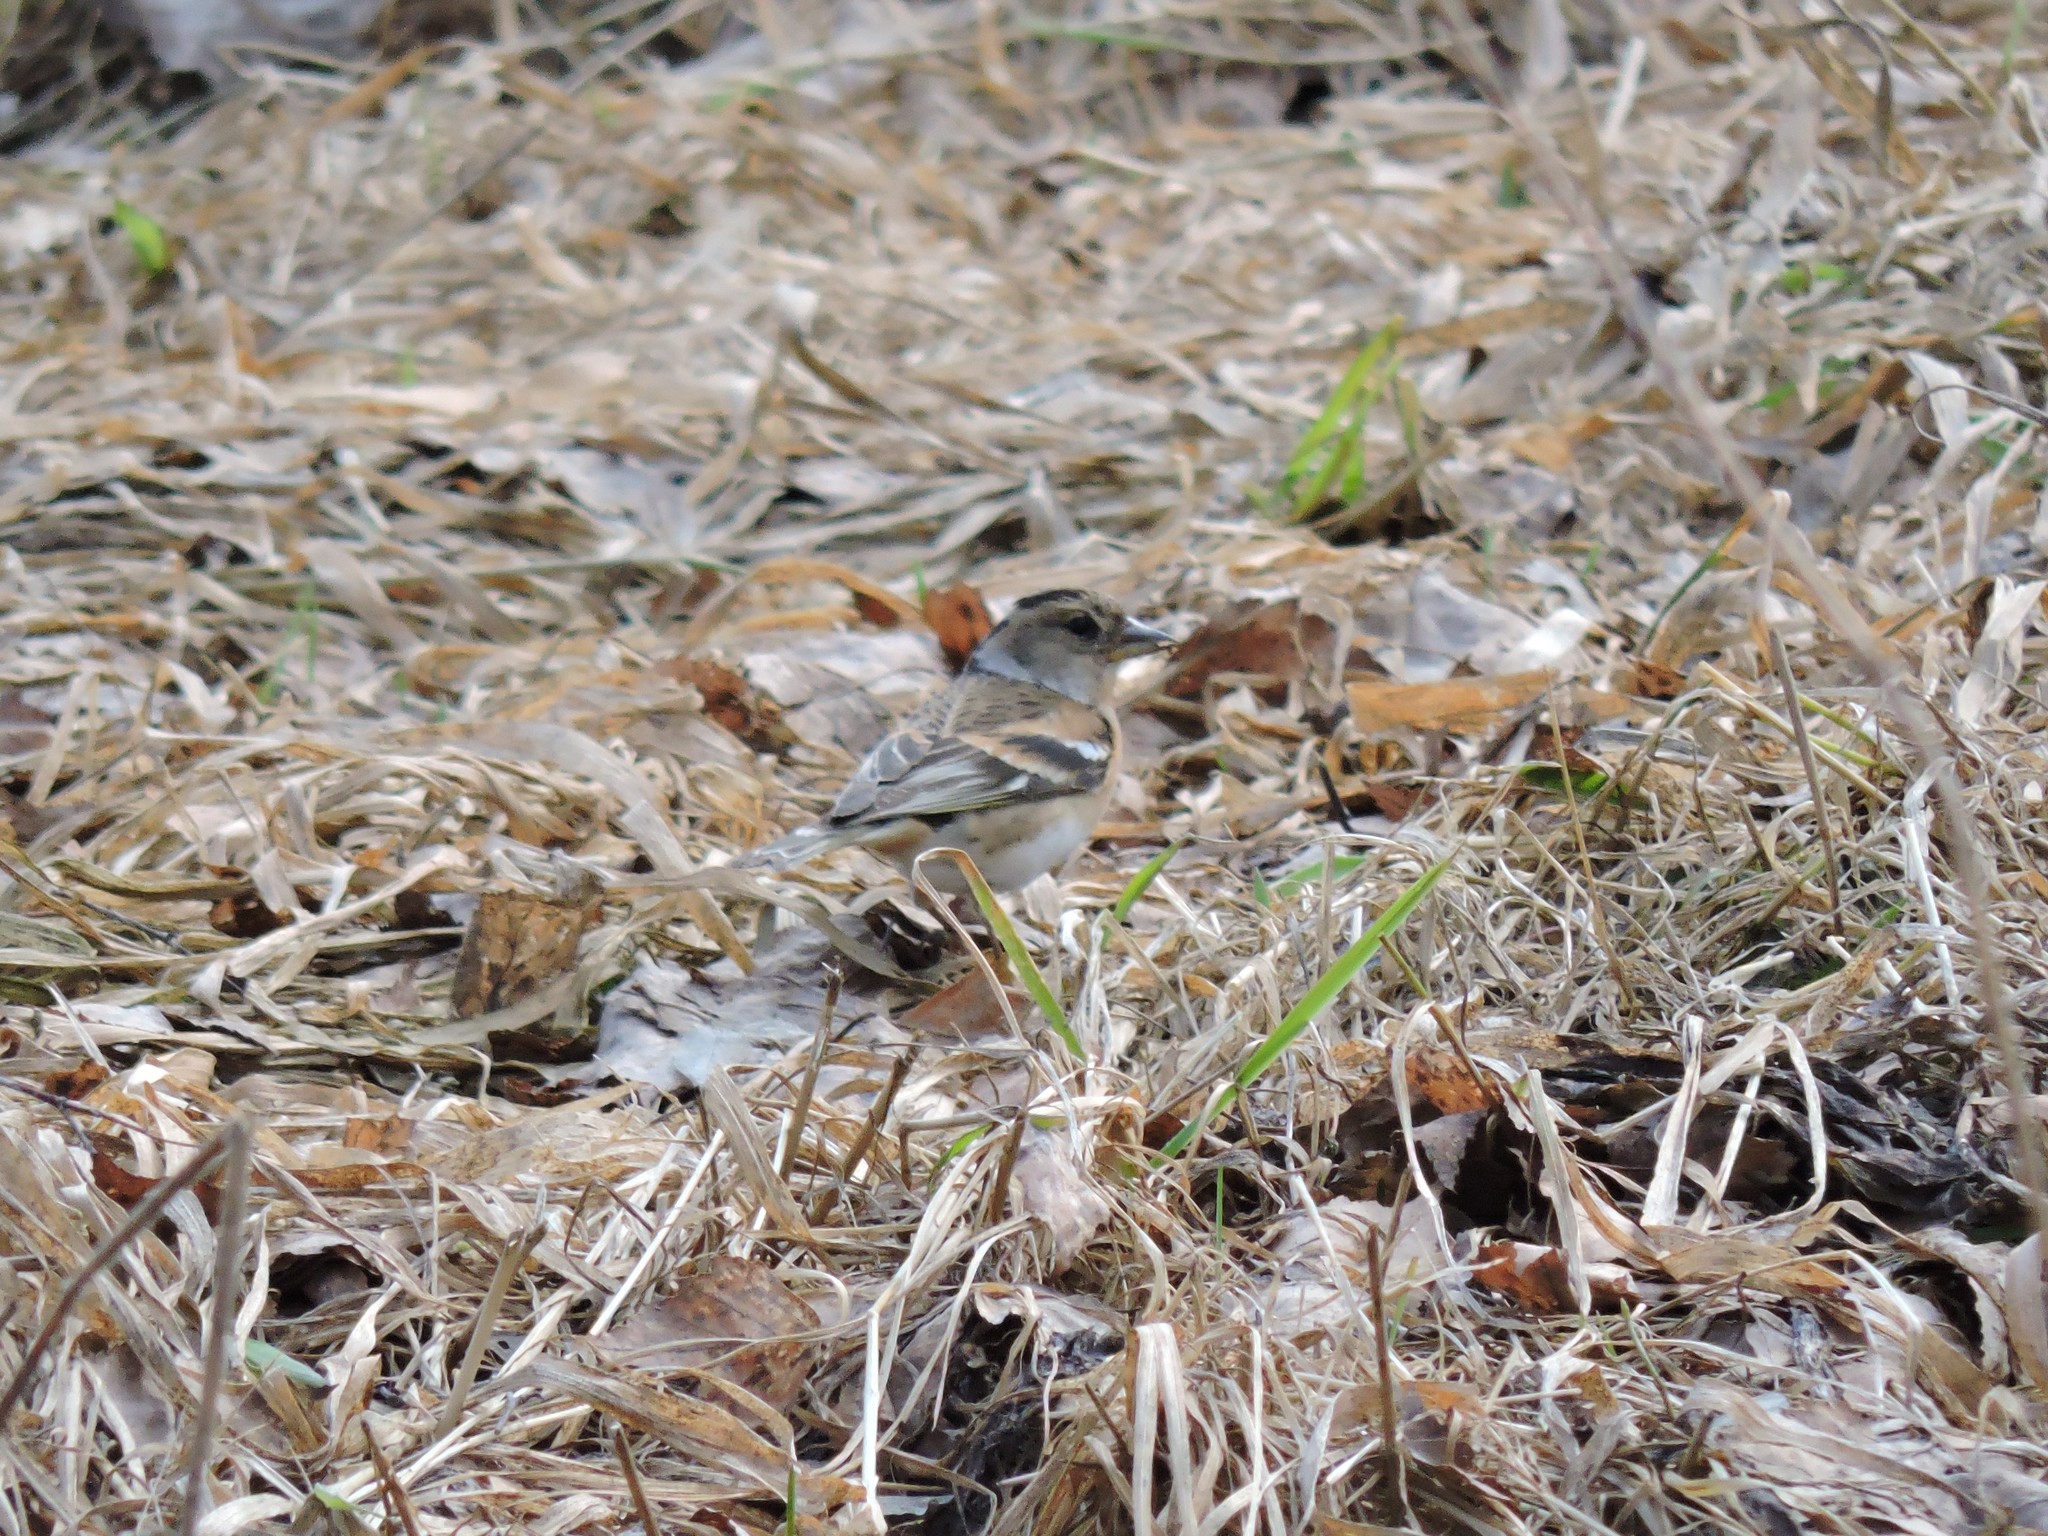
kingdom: Animalia
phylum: Chordata
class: Aves
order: Passeriformes
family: Fringillidae
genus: Fringilla
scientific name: Fringilla montifringilla
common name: Brambling
